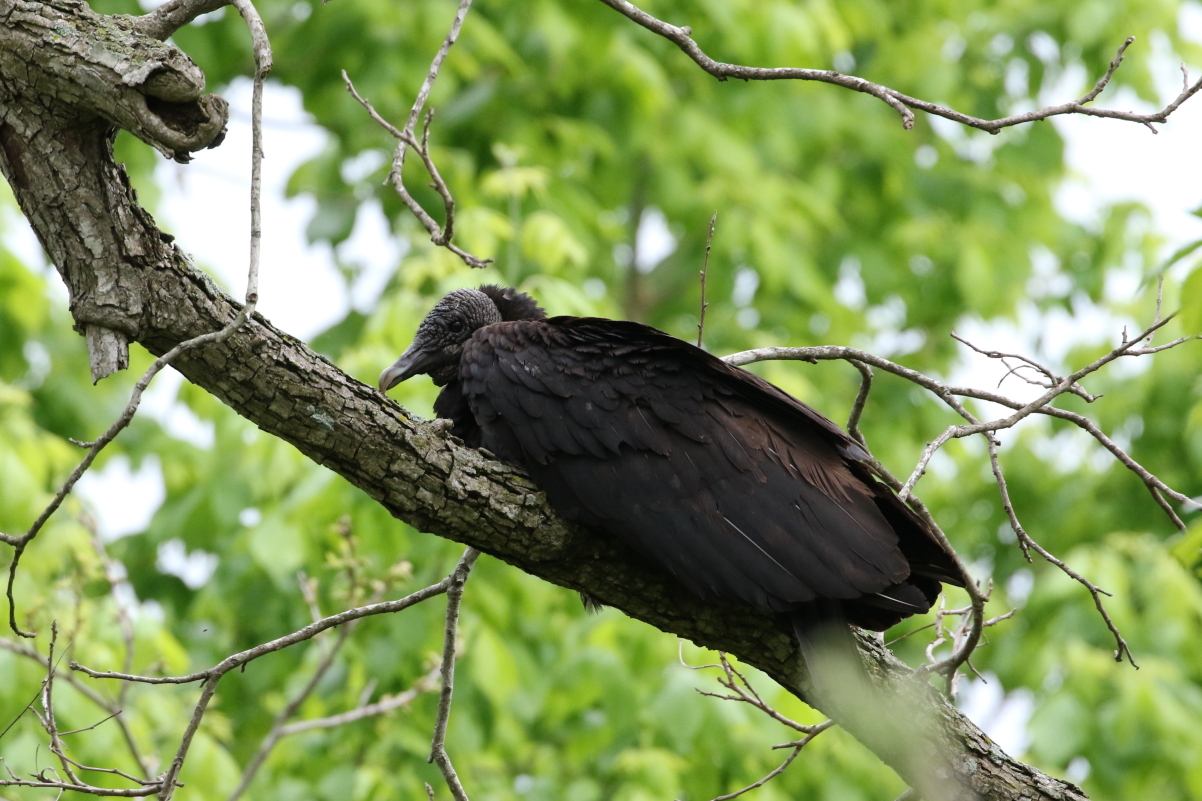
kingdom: Animalia
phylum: Chordata
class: Aves
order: Accipitriformes
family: Cathartidae
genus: Coragyps
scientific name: Coragyps atratus
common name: Black vulture
